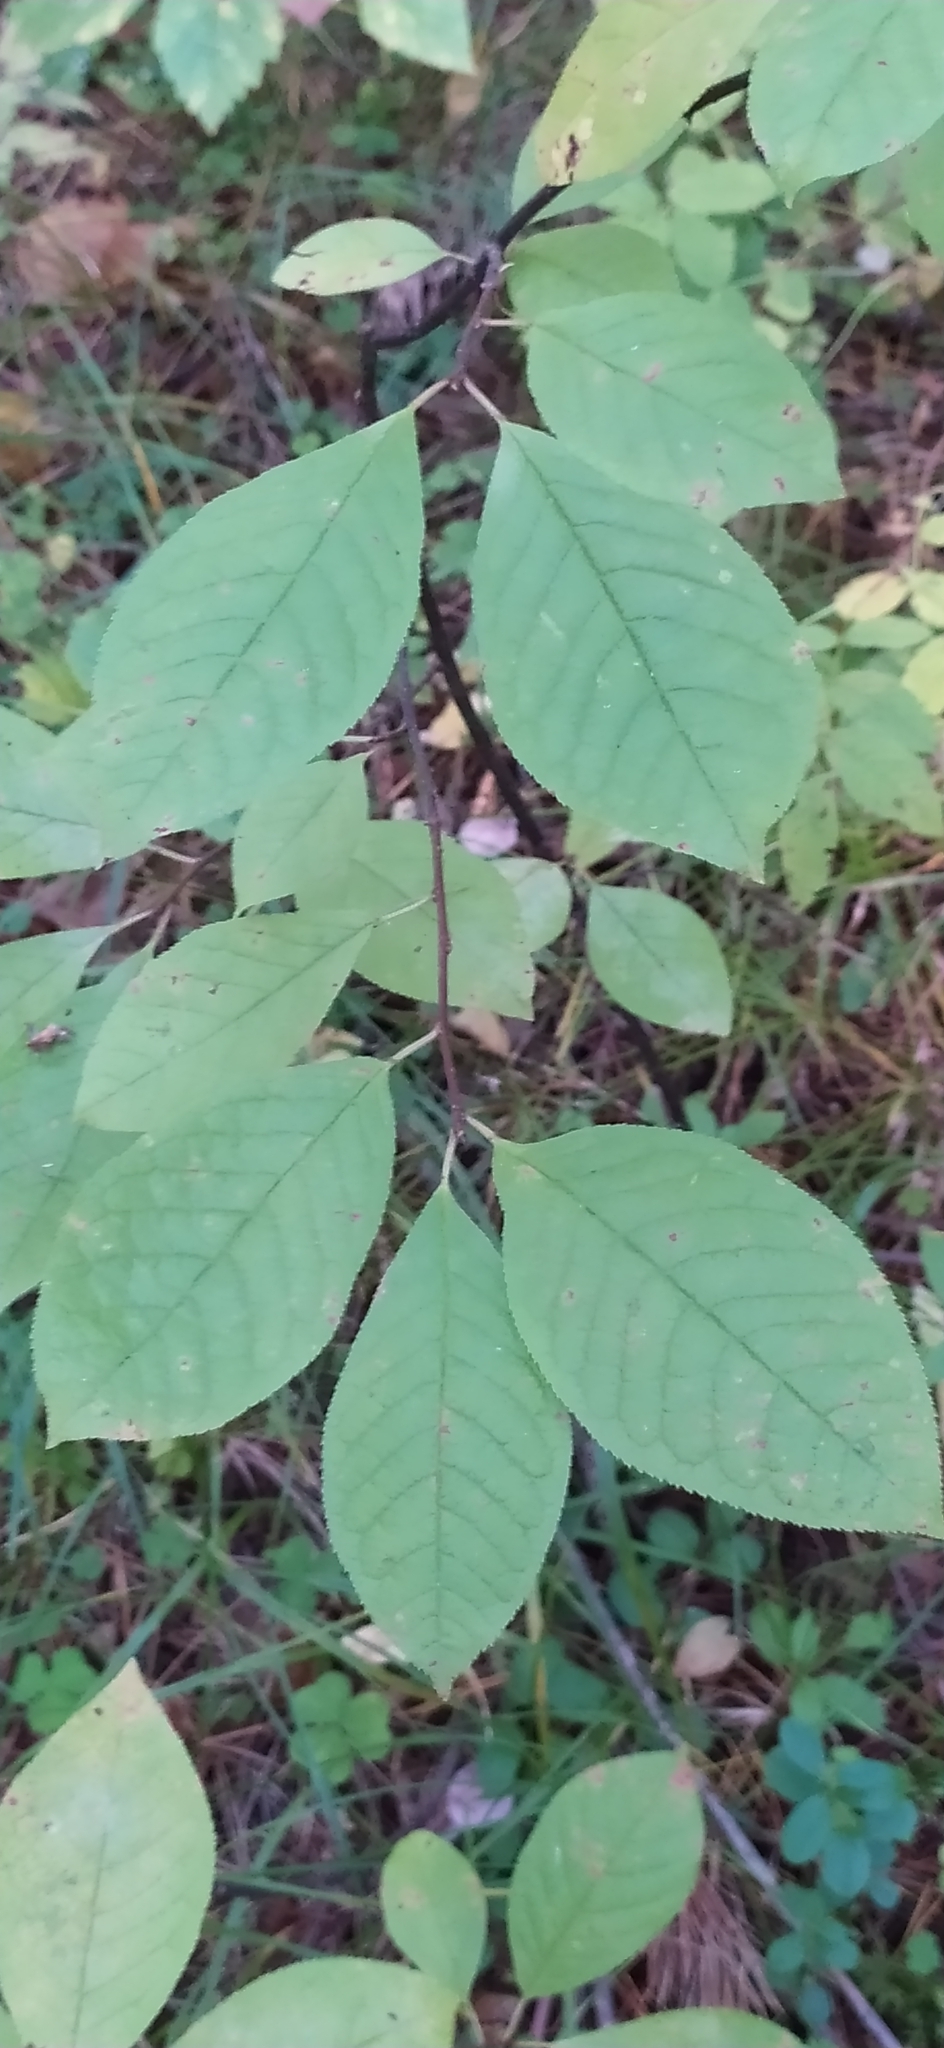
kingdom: Plantae
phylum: Tracheophyta
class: Magnoliopsida
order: Rosales
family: Rosaceae
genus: Prunus
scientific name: Prunus padus
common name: Bird cherry
